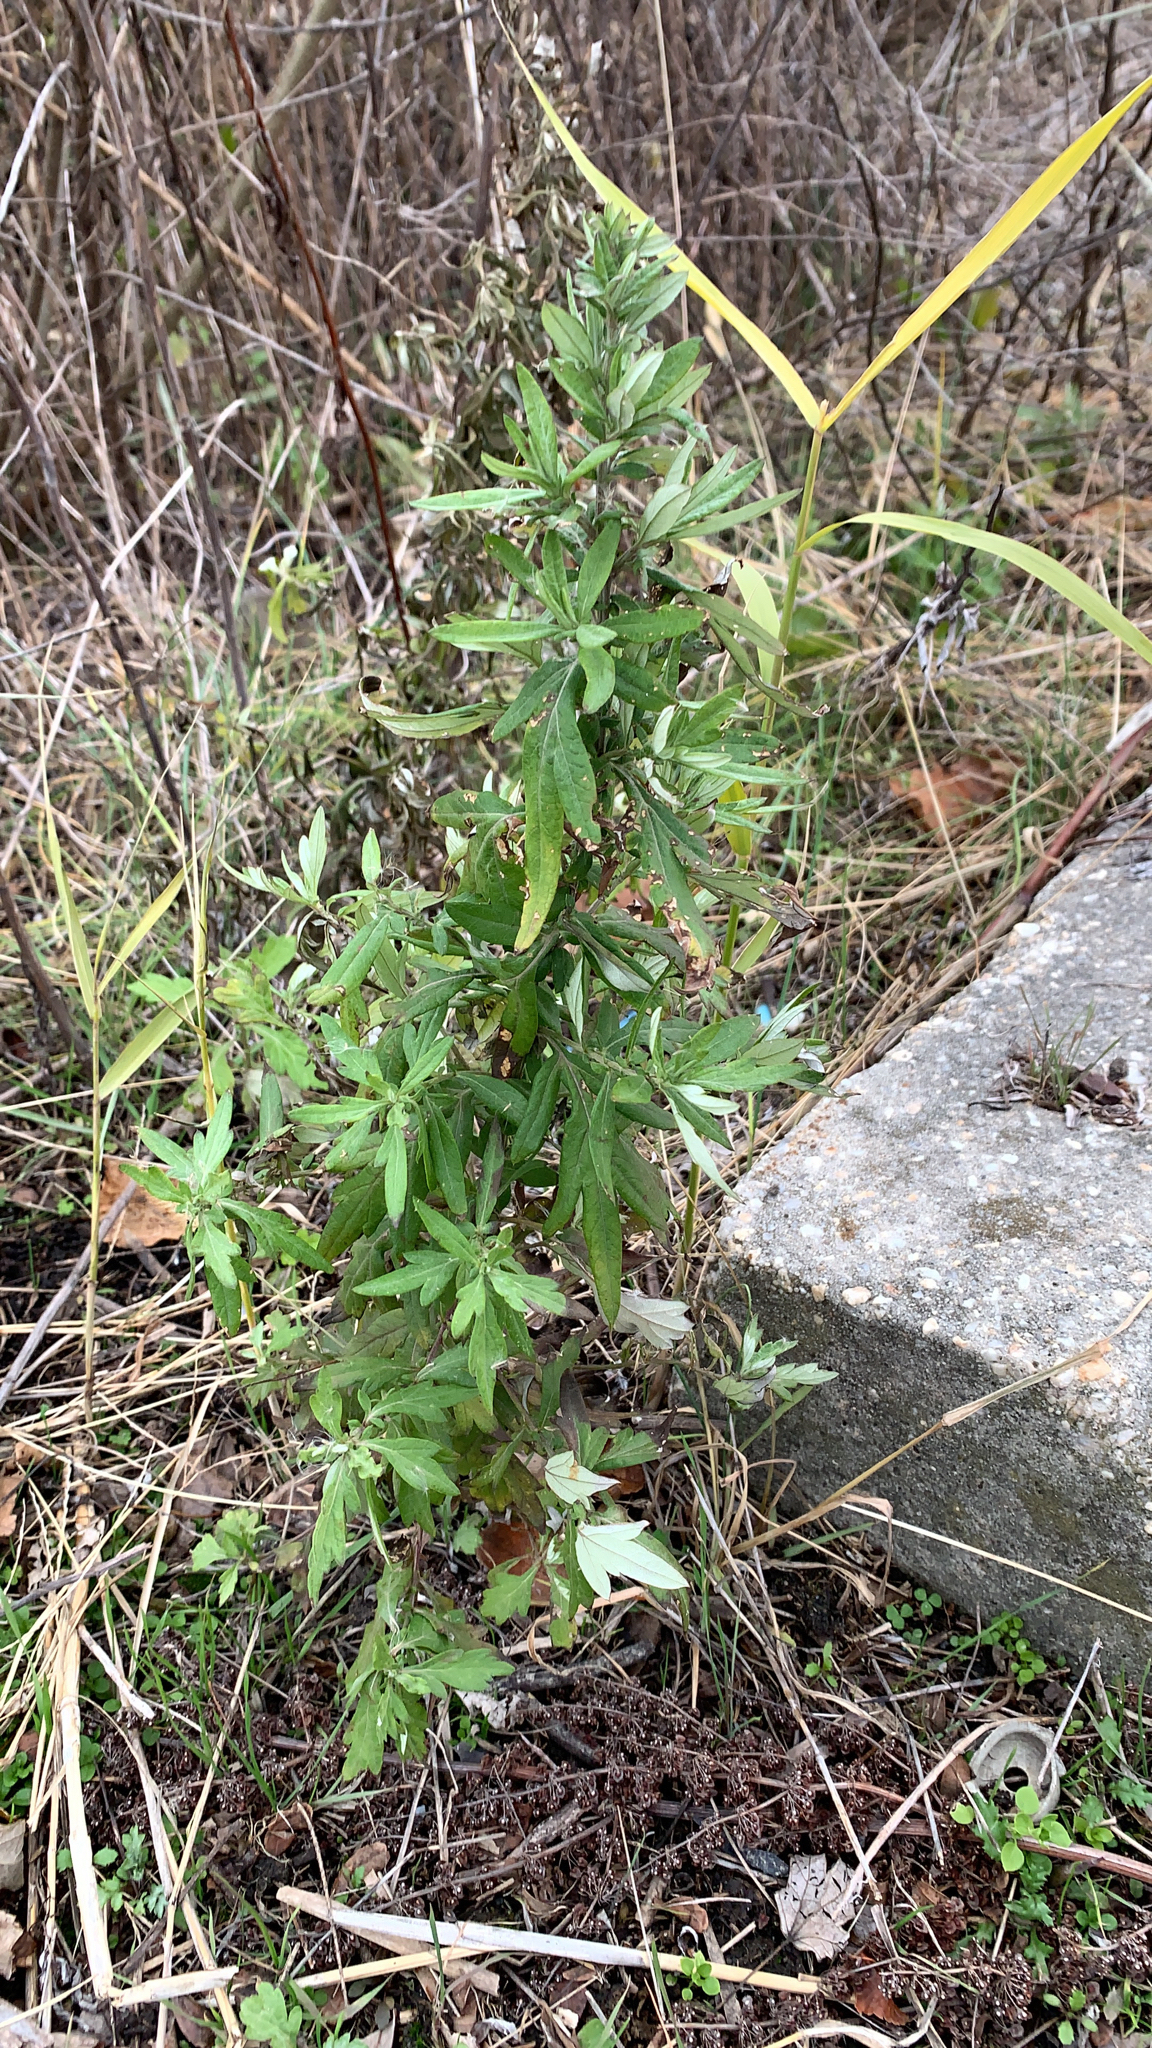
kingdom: Plantae
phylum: Tracheophyta
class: Magnoliopsida
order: Asterales
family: Asteraceae
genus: Artemisia
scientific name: Artemisia vulgaris
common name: Mugwort
